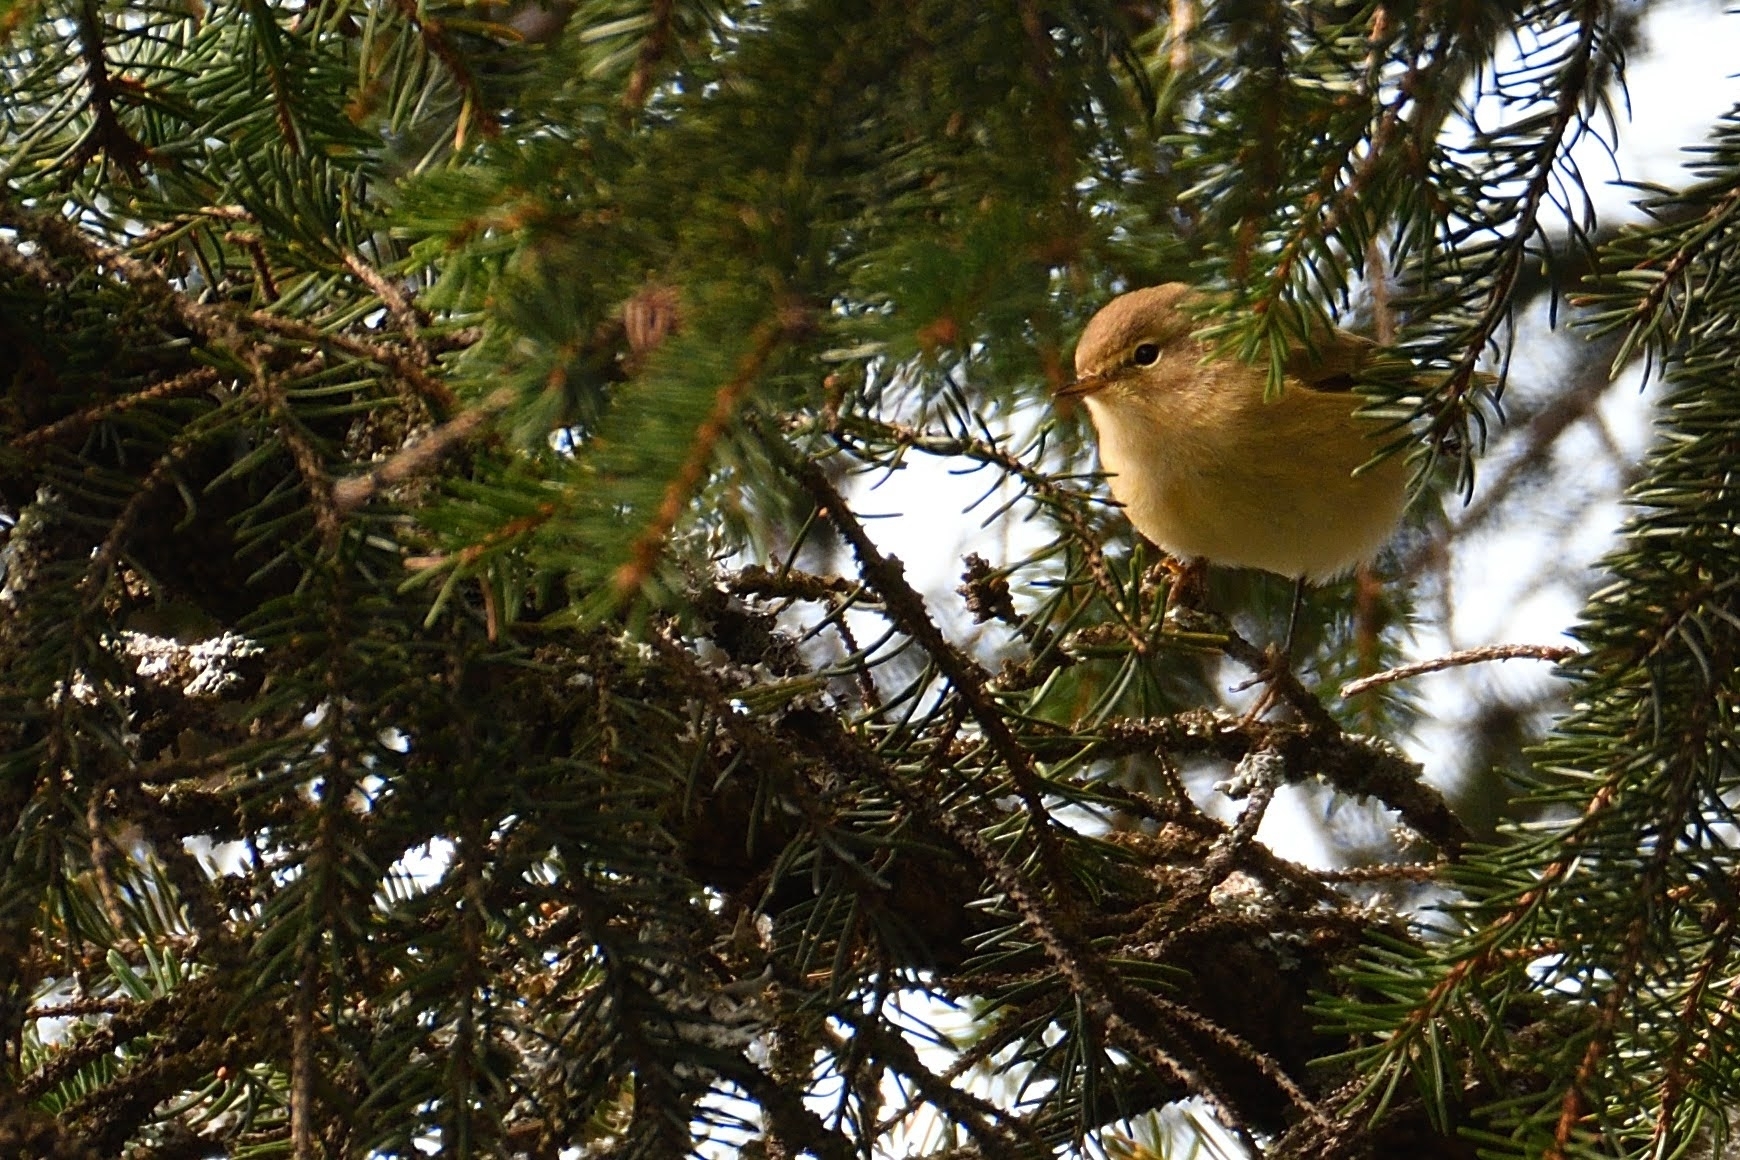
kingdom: Animalia
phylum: Chordata
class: Aves
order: Passeriformes
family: Phylloscopidae
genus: Phylloscopus
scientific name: Phylloscopus collybita
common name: Common chiffchaff
